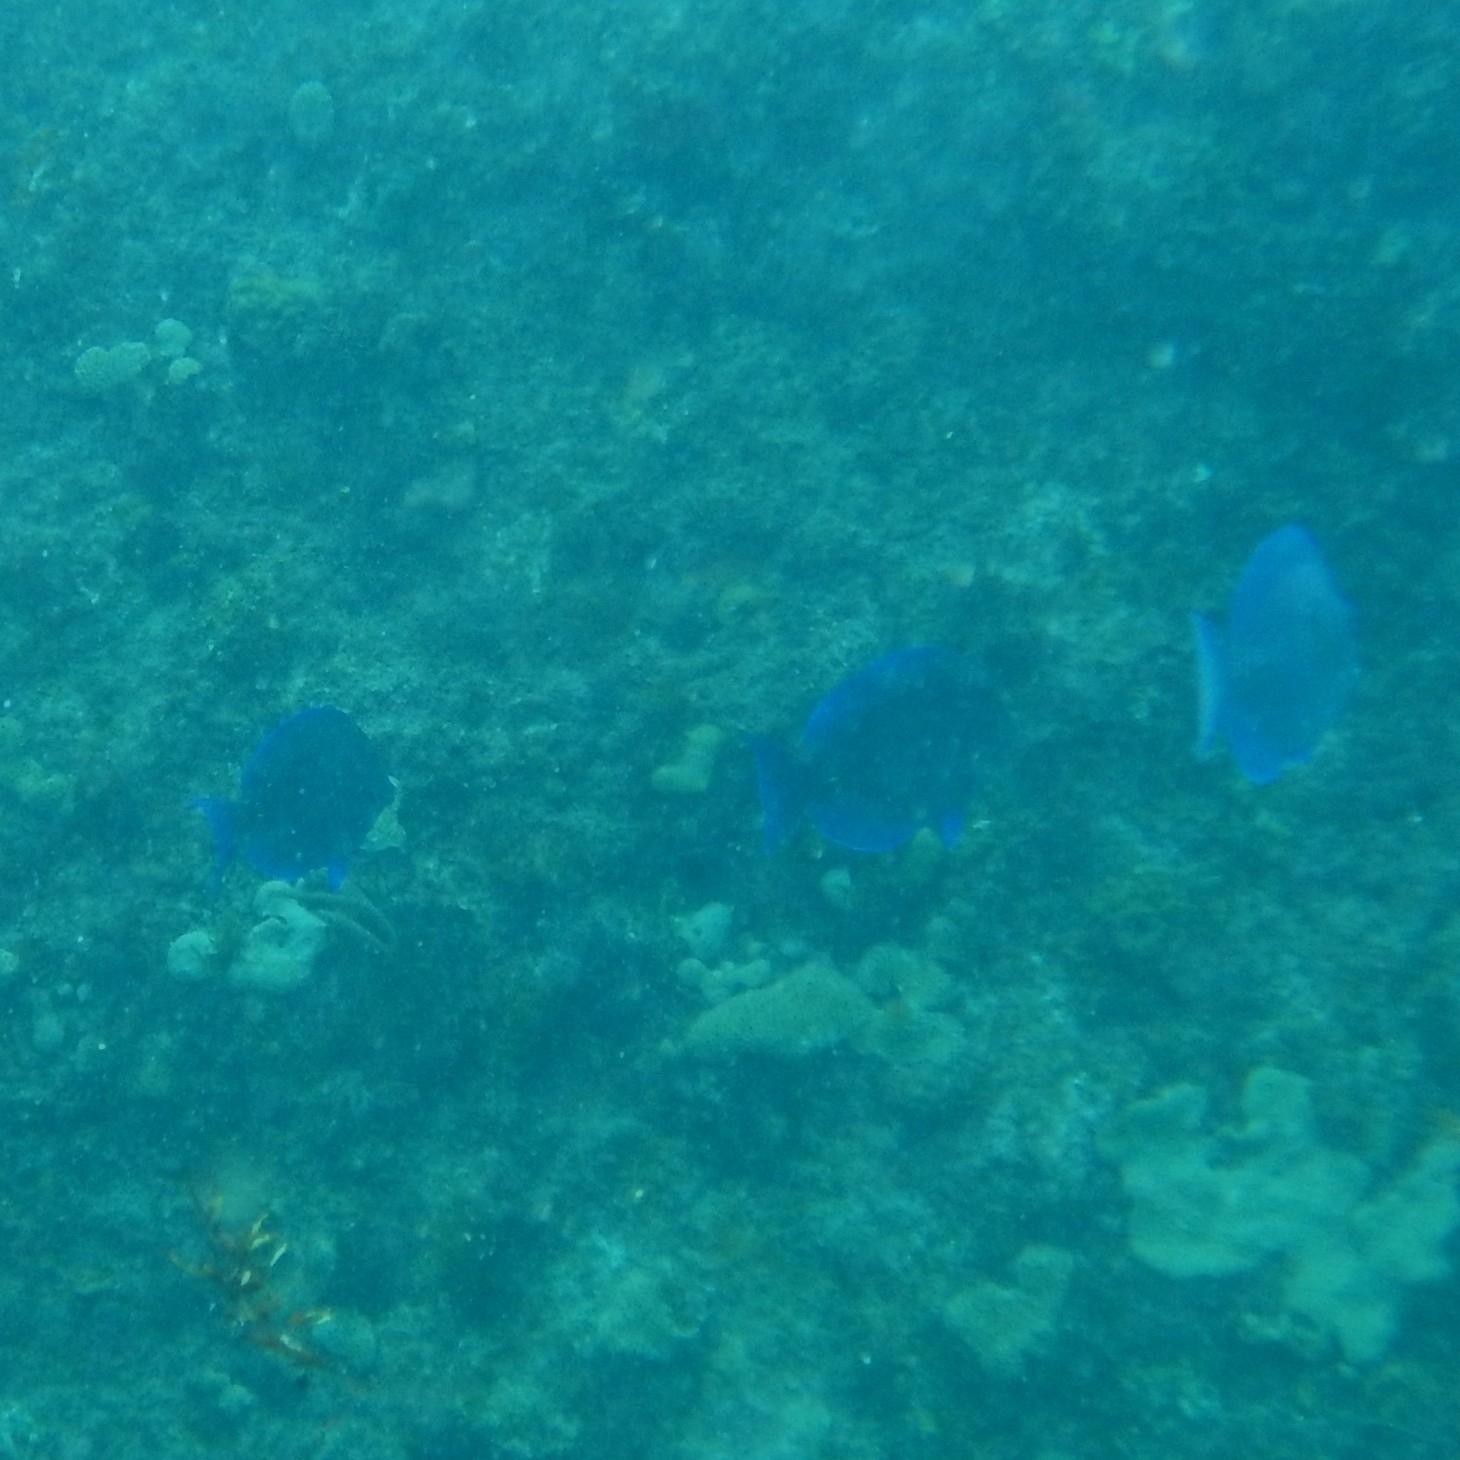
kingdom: Animalia
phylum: Chordata
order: Perciformes
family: Acanthuridae
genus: Acanthurus
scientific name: Acanthurus coeruleus
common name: Blue tang
